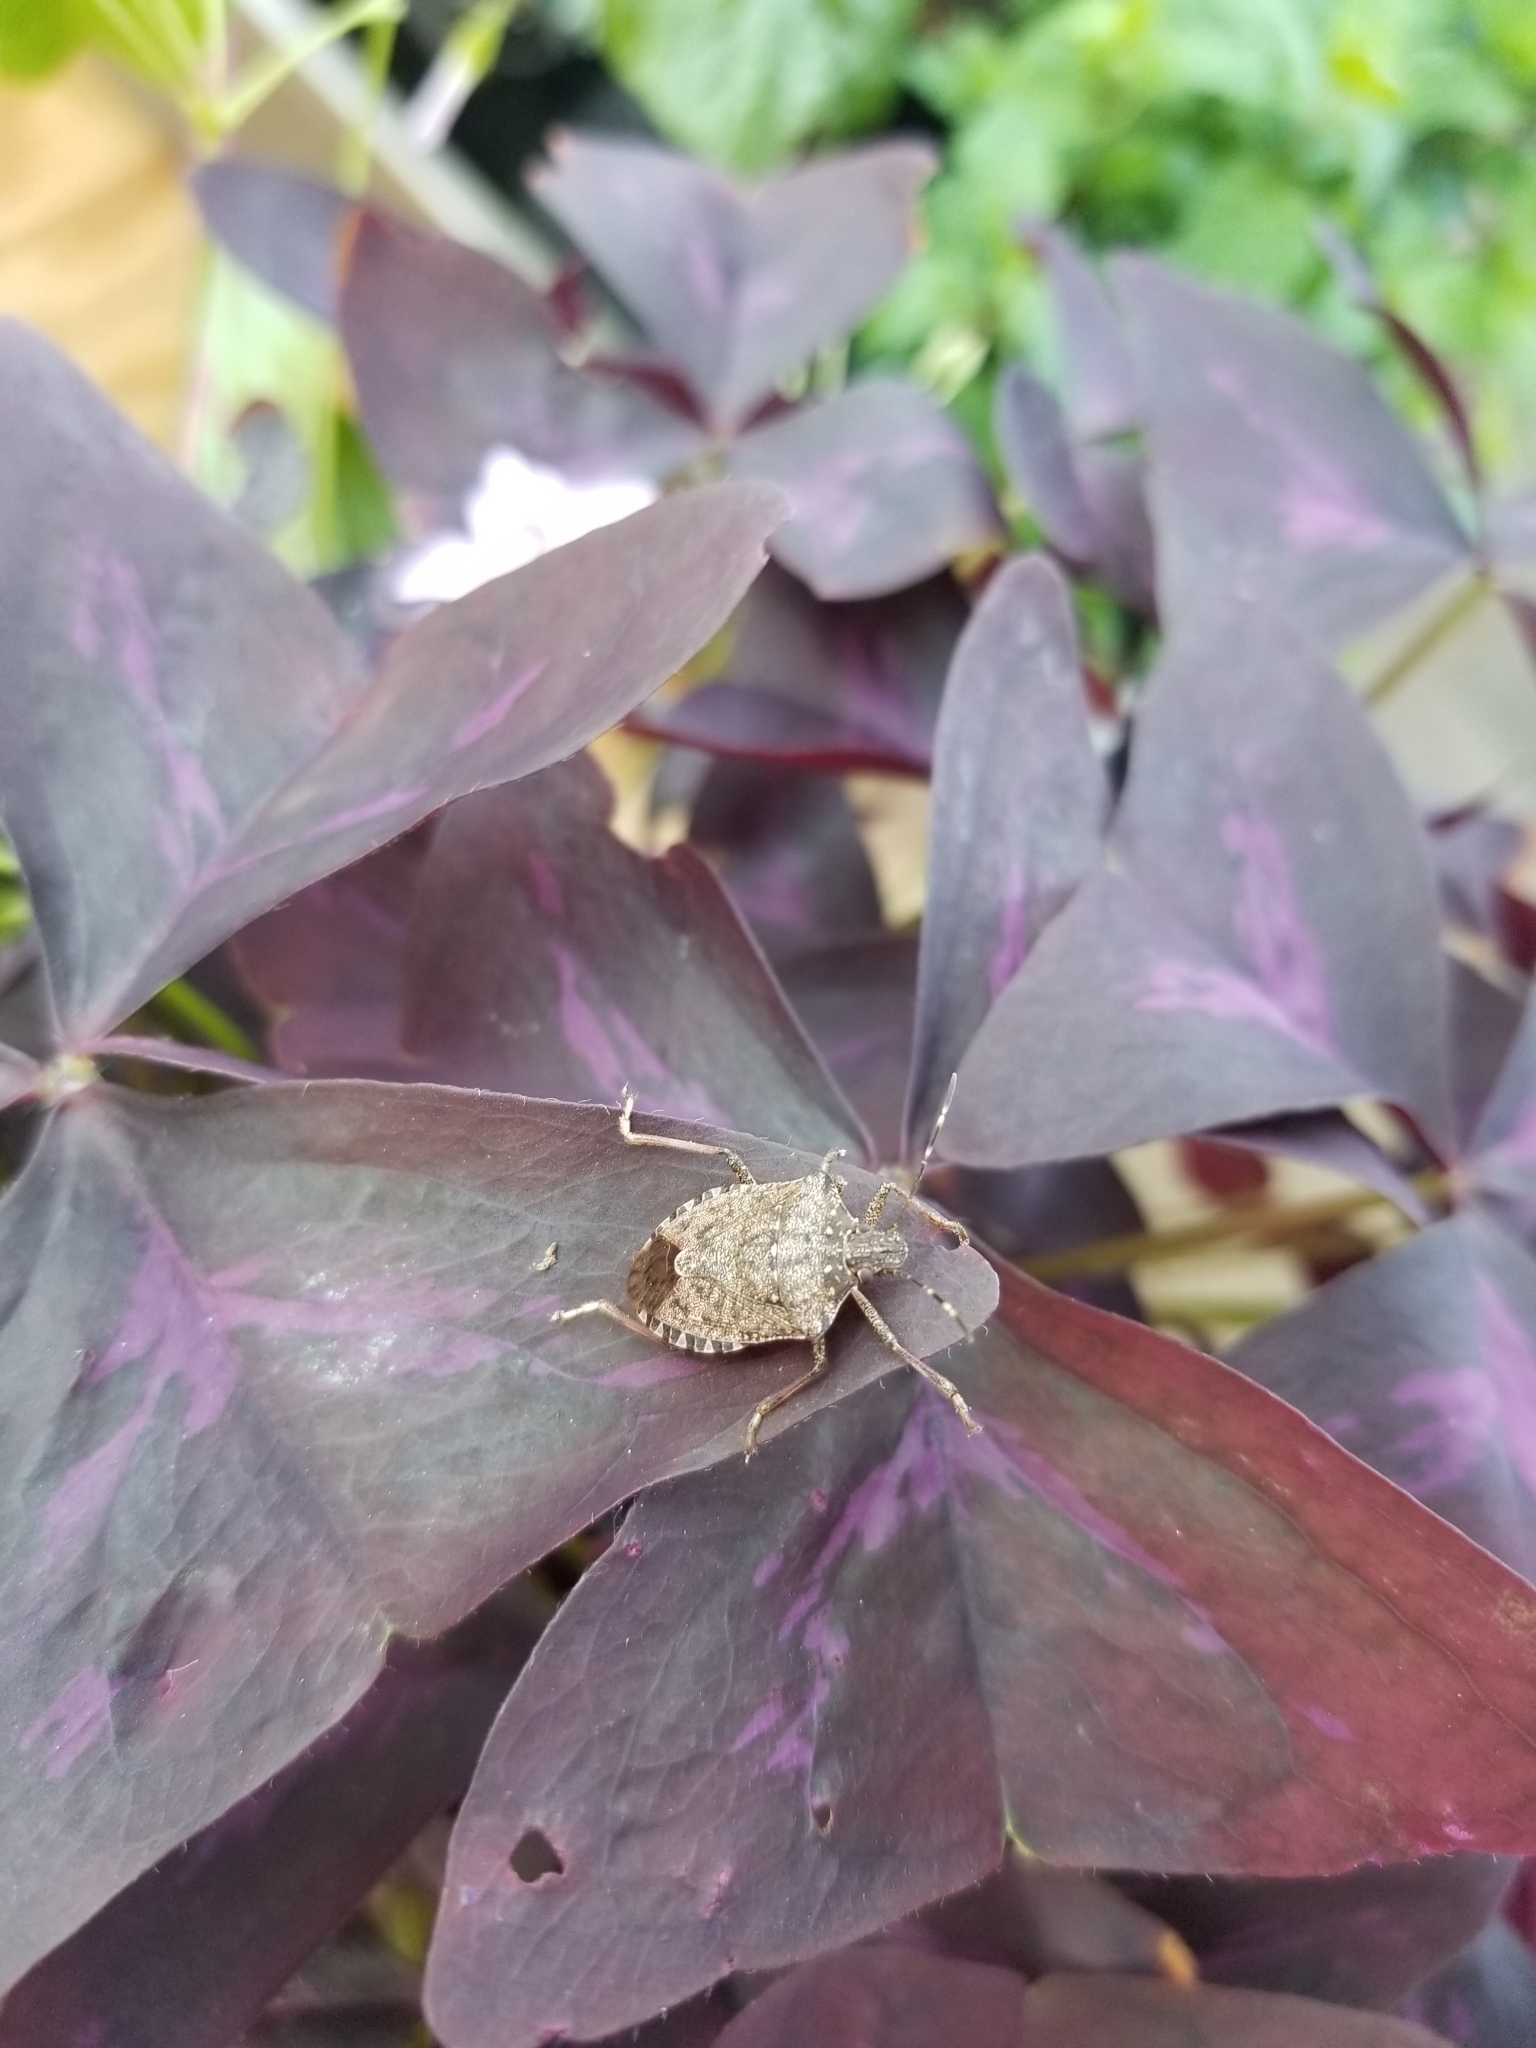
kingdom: Animalia
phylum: Arthropoda
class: Insecta
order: Hemiptera
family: Pentatomidae
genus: Halyomorpha
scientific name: Halyomorpha halys
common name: Brown marmorated stink bug
